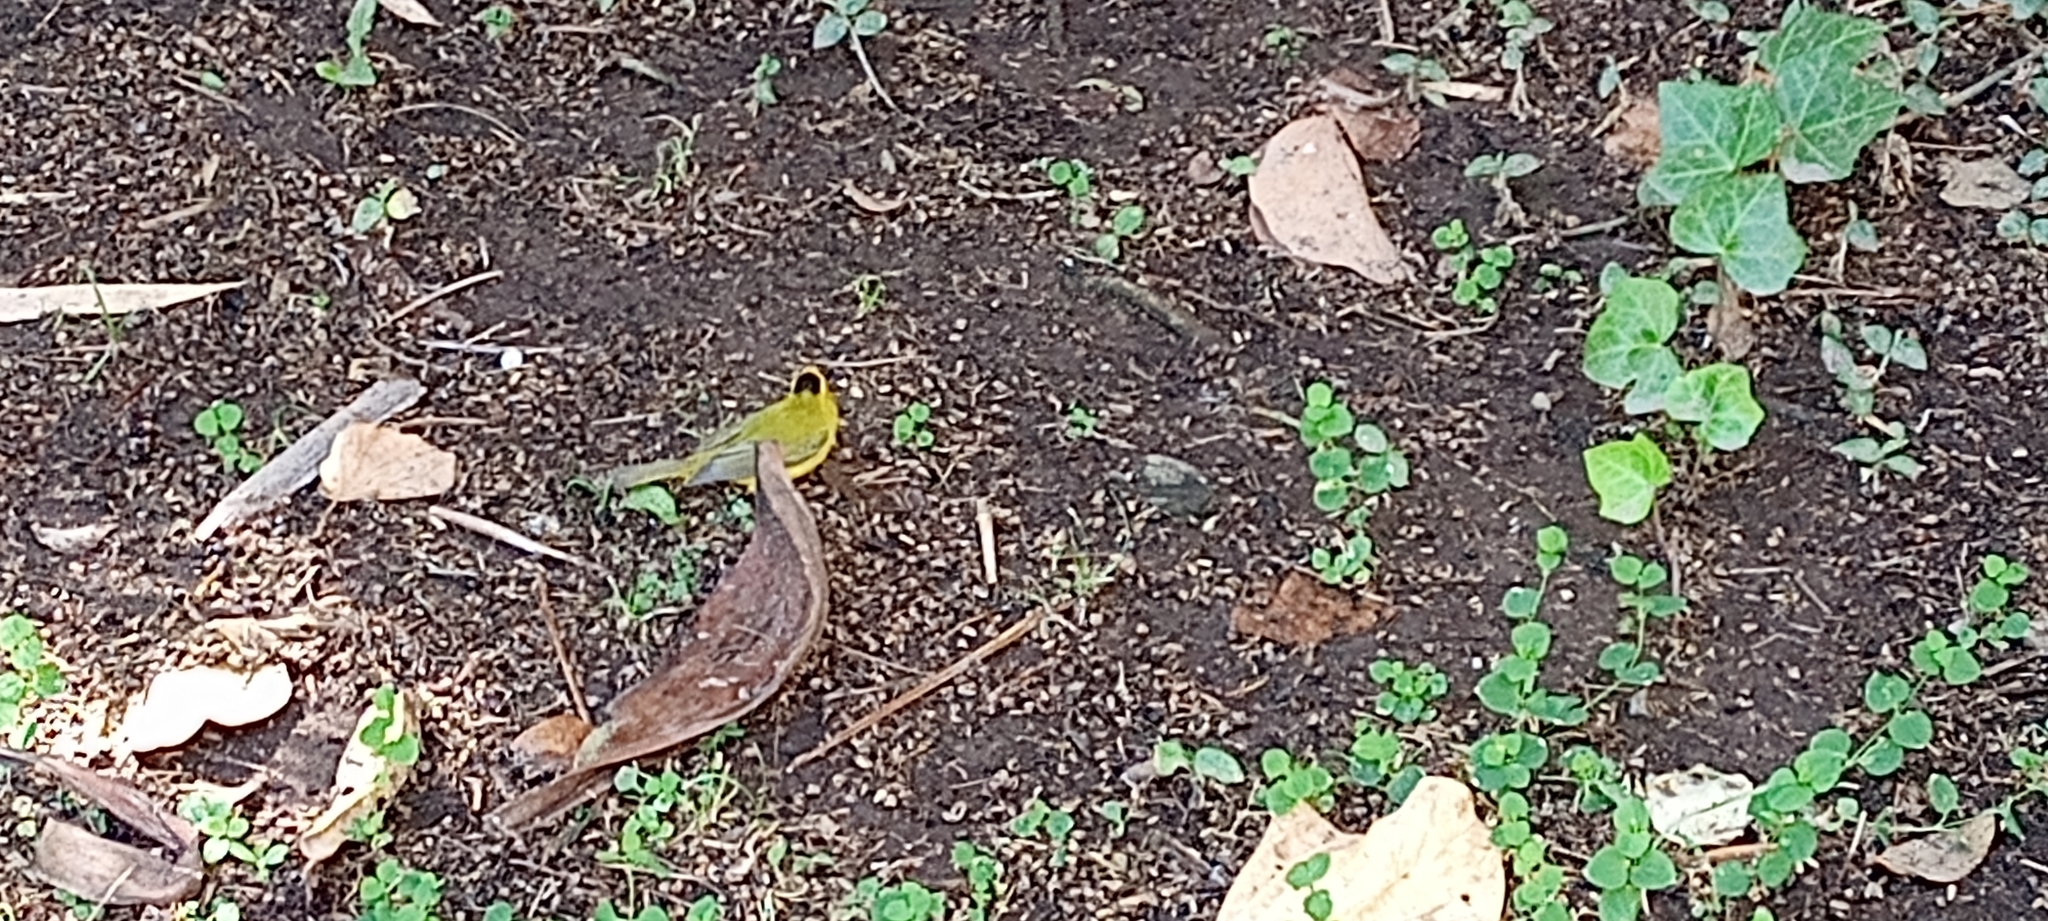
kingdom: Animalia
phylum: Chordata
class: Aves
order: Passeriformes
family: Parulidae
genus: Cardellina
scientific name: Cardellina pusilla
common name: Wilson's warbler
